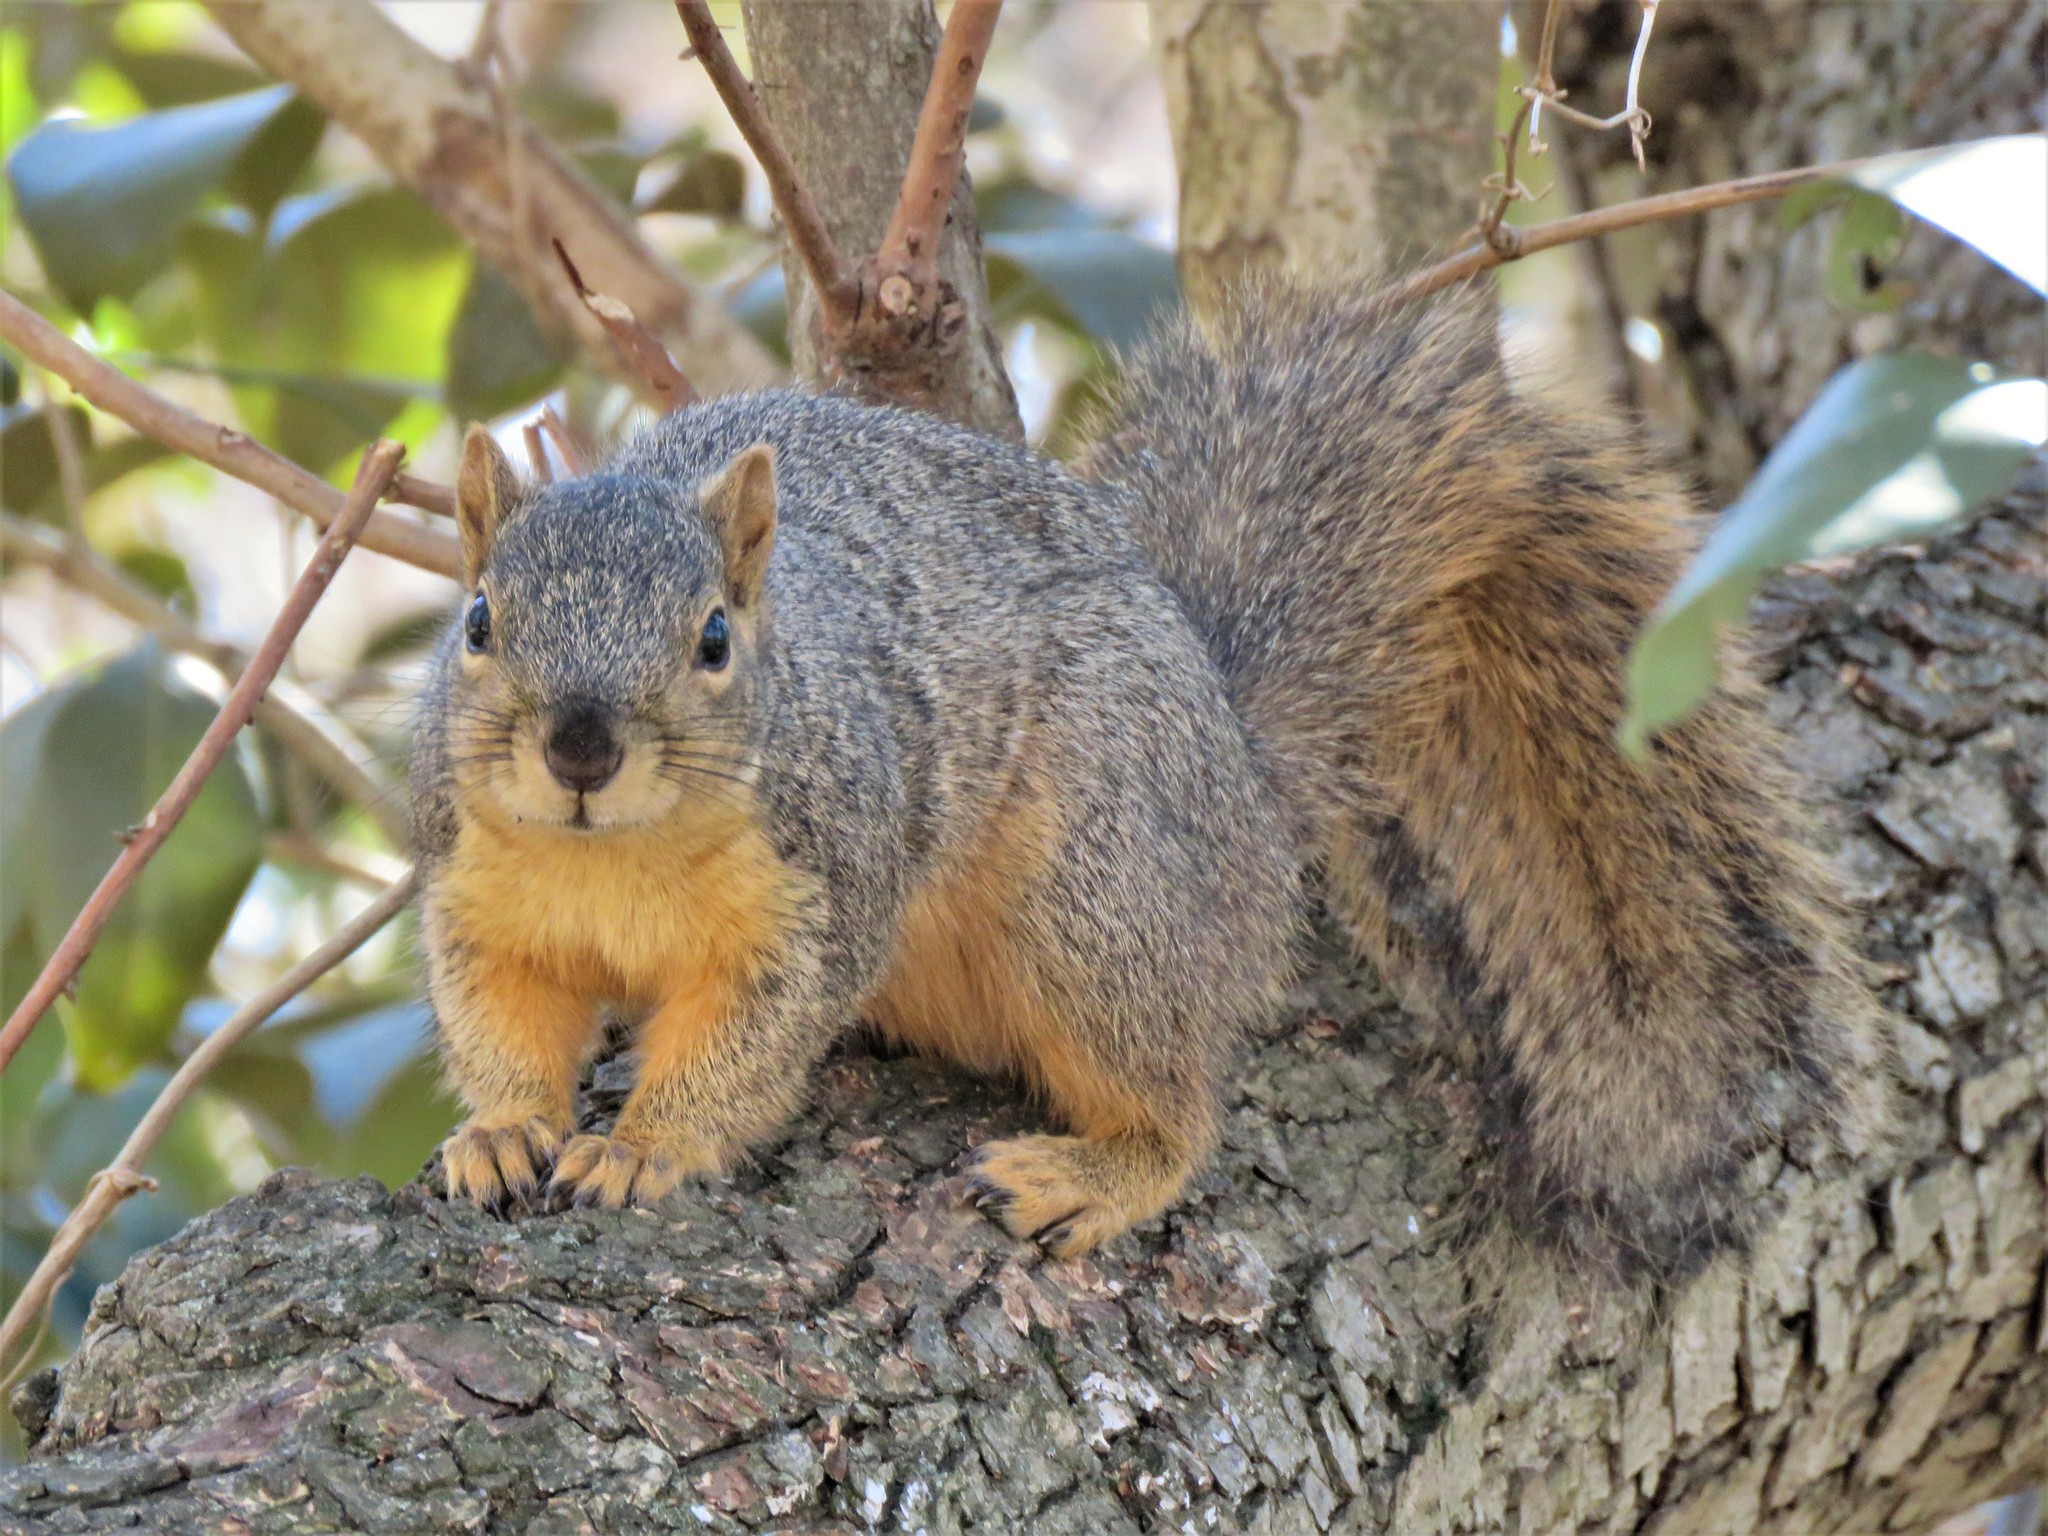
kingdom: Animalia
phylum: Chordata
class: Mammalia
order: Rodentia
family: Sciuridae
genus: Sciurus
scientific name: Sciurus niger
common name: Fox squirrel
